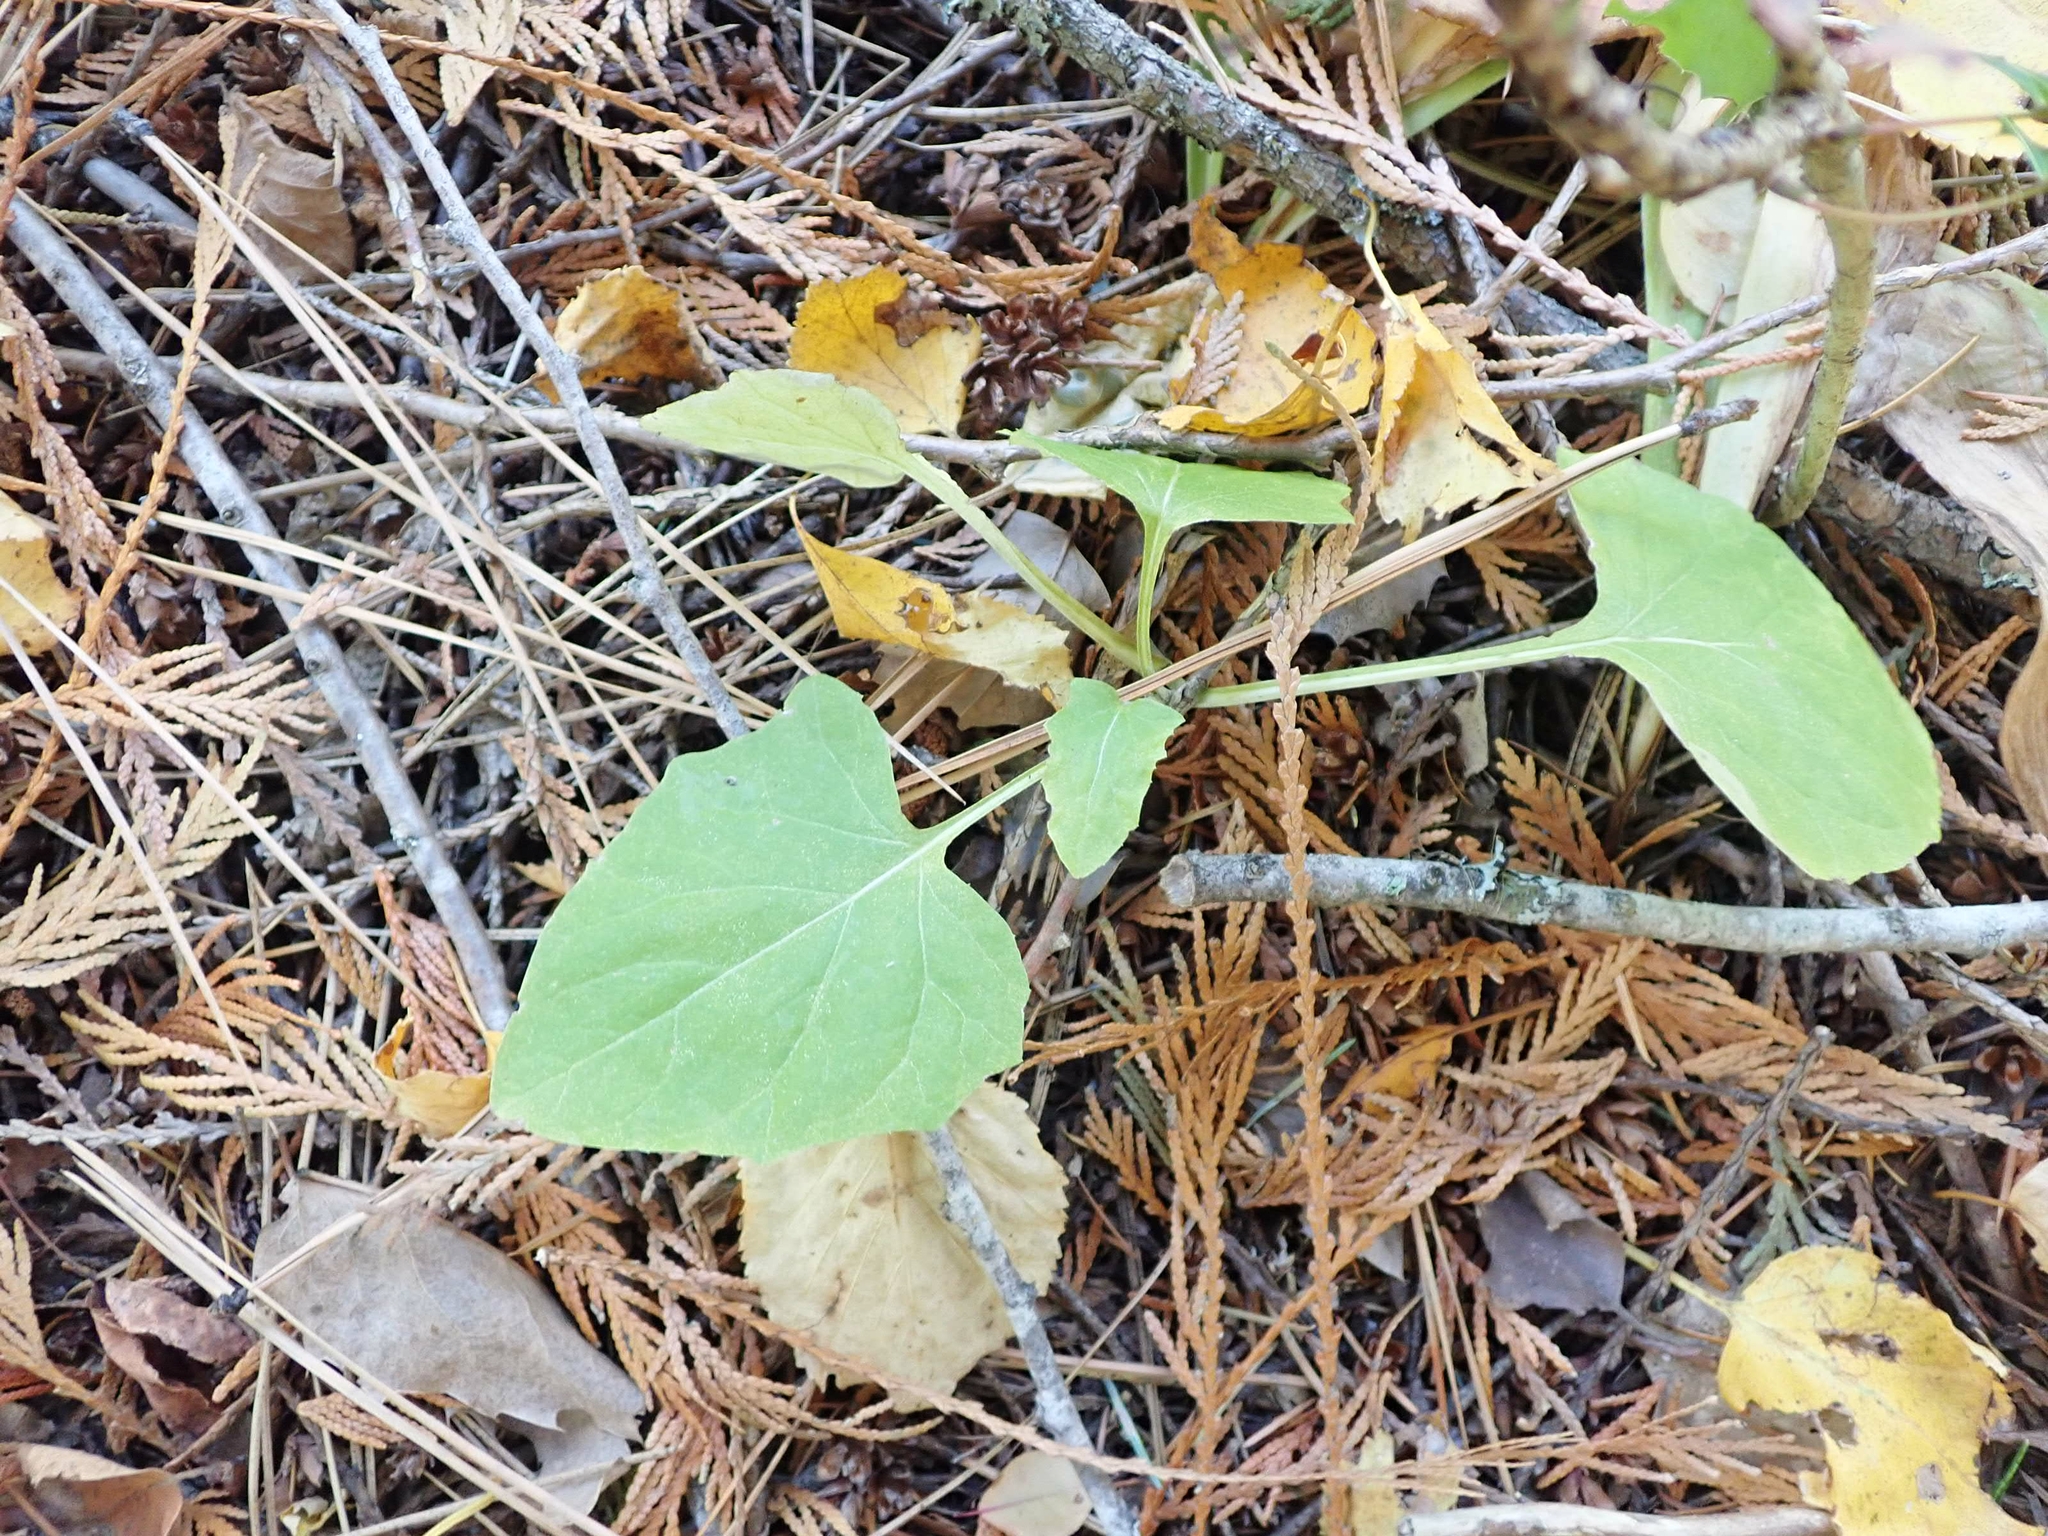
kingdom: Plantae
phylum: Tracheophyta
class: Magnoliopsida
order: Asterales
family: Asteraceae
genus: Adenocaulon
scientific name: Adenocaulon bicolor
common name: Trailplant
